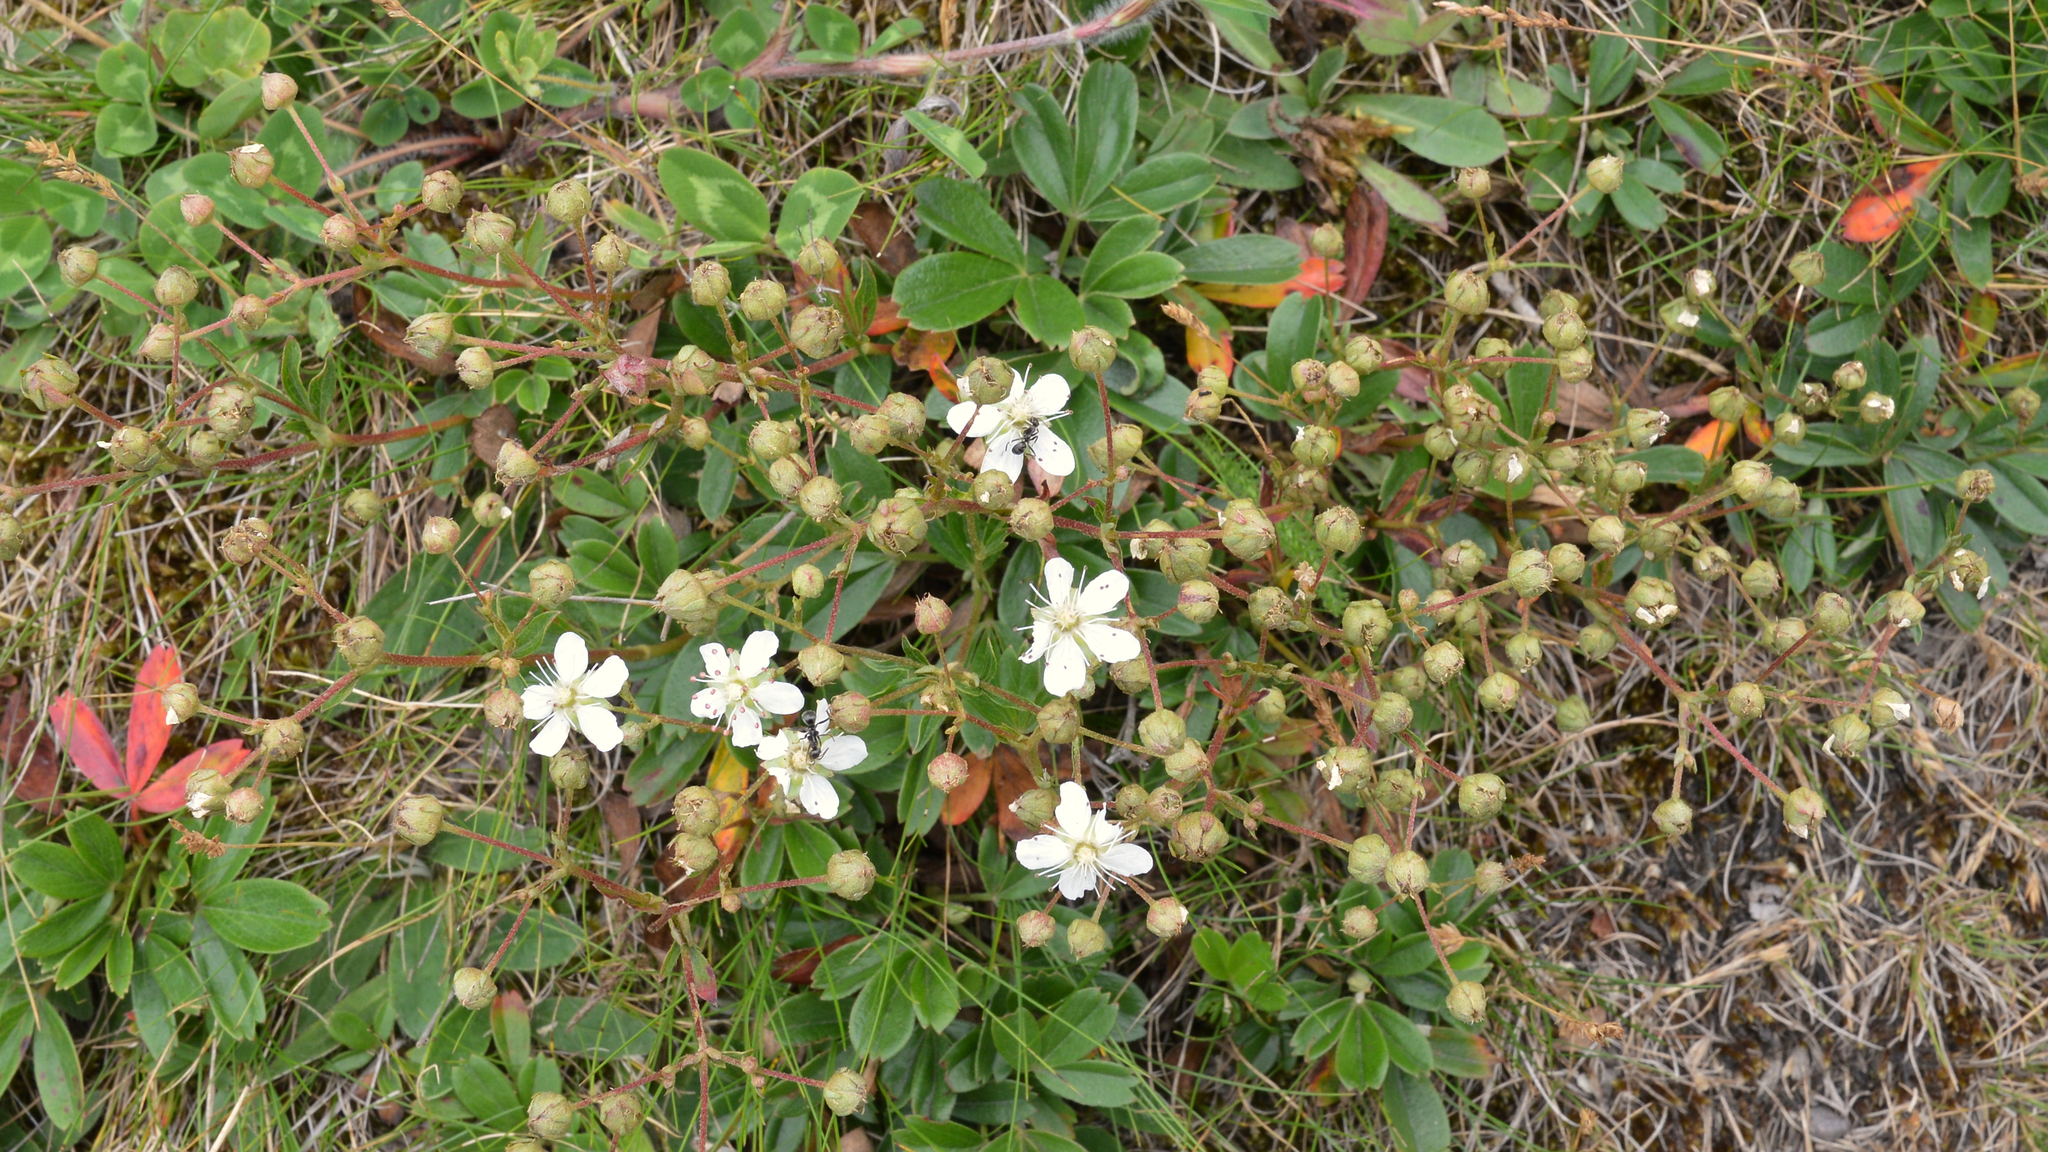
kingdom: Plantae
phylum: Tracheophyta
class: Magnoliopsida
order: Rosales
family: Rosaceae
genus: Sibbaldia
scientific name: Sibbaldia tridentata
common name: Three-toothed cinquefoil
